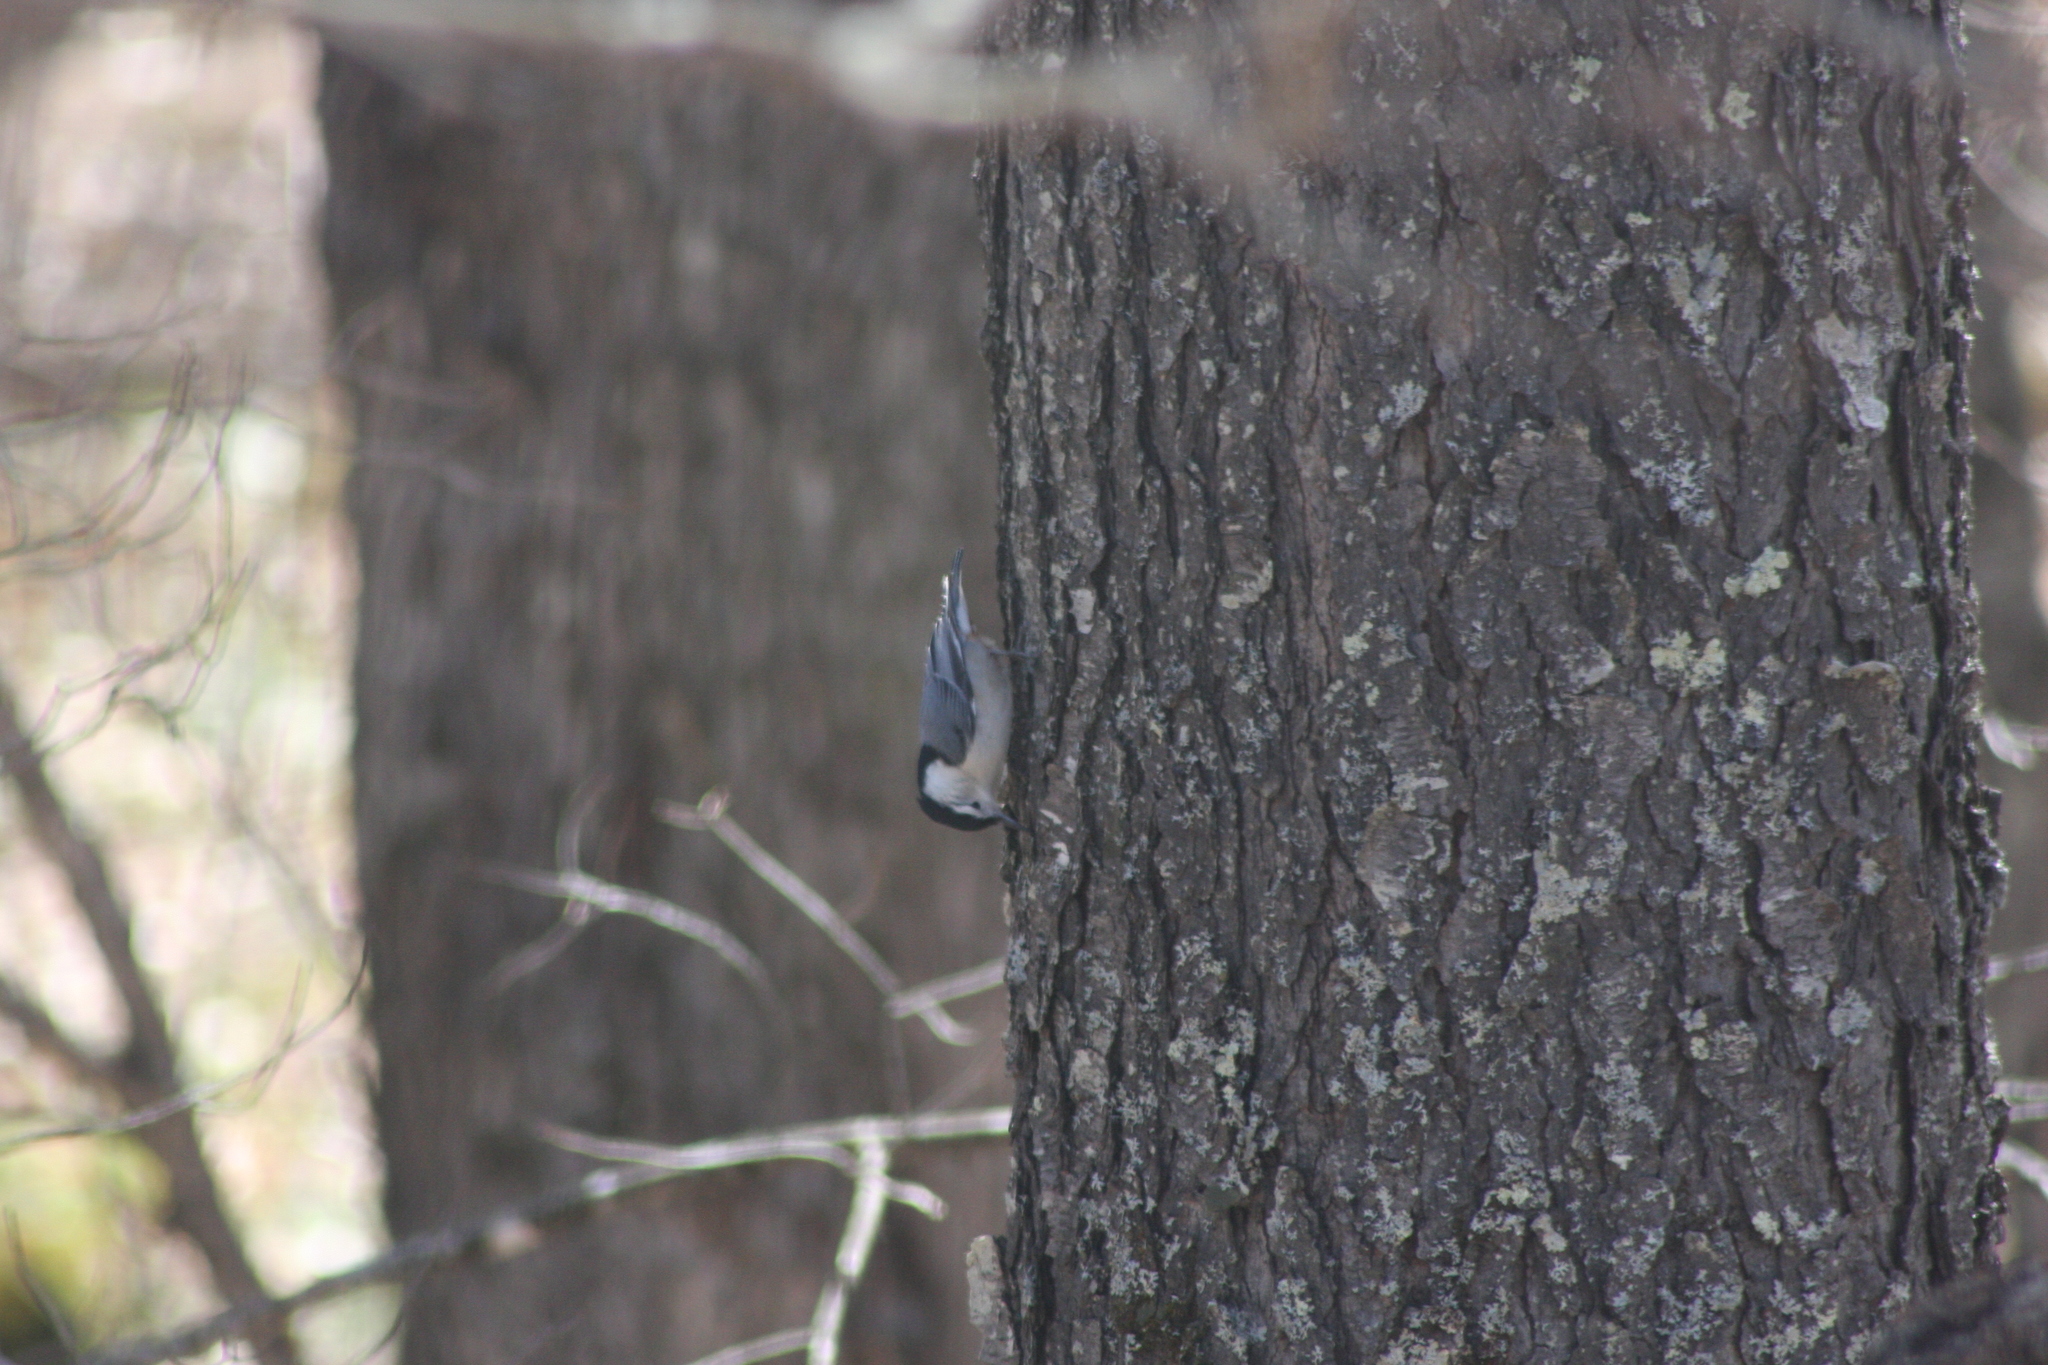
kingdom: Animalia
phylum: Chordata
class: Aves
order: Passeriformes
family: Sittidae
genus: Sitta
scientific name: Sitta carolinensis
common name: White-breasted nuthatch
